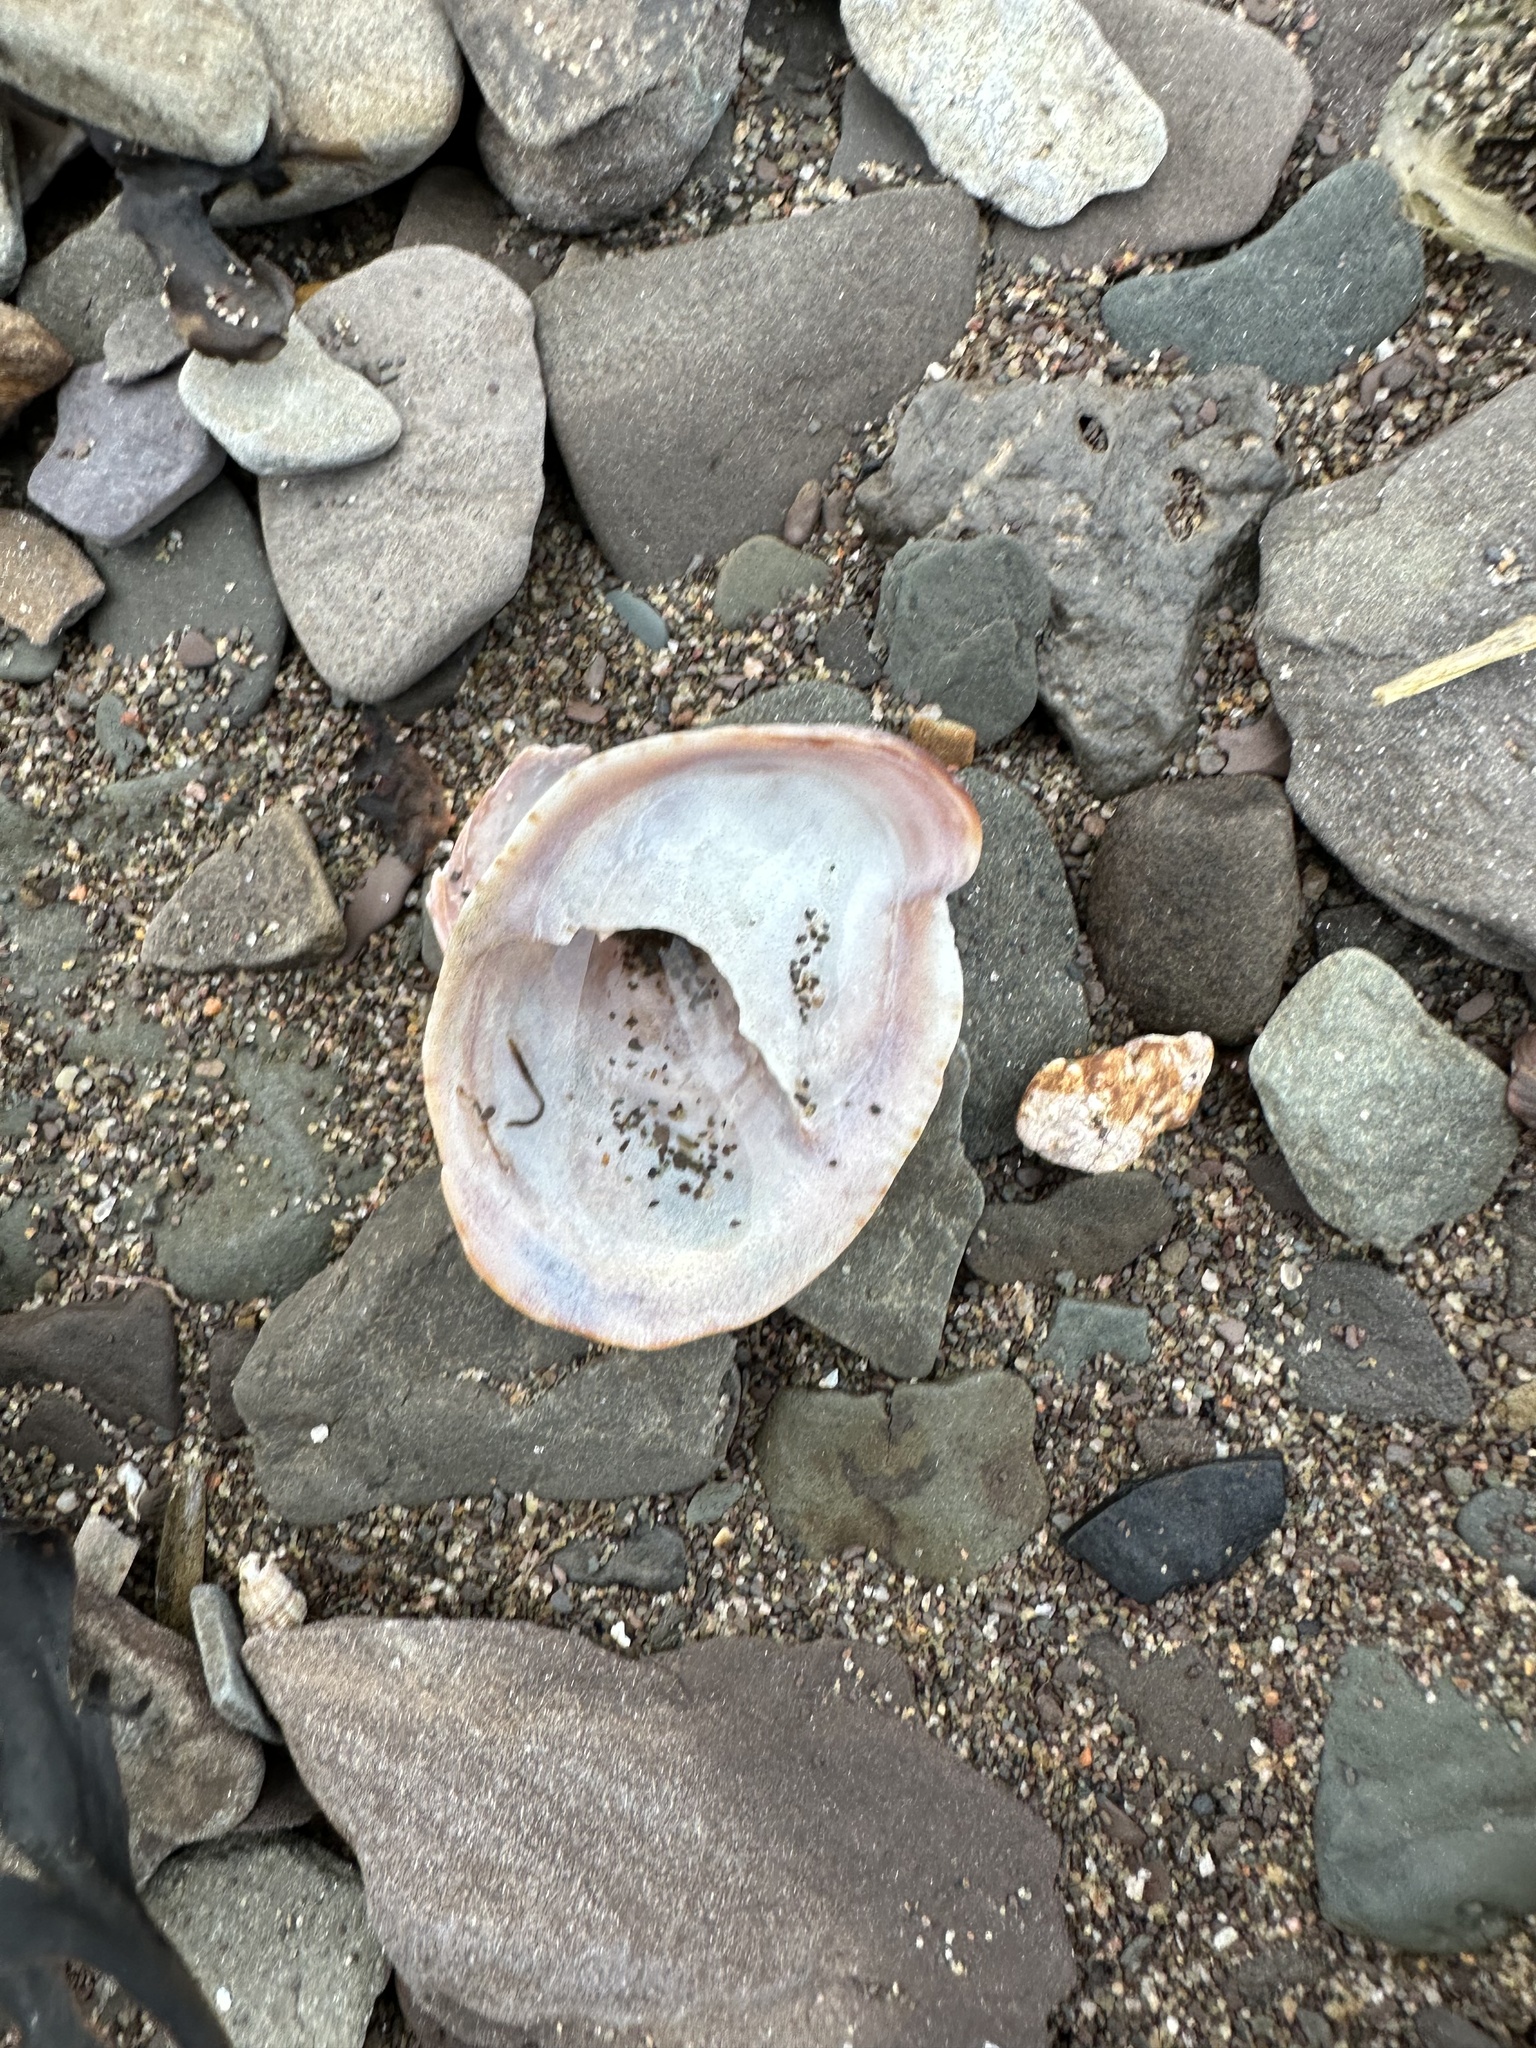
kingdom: Animalia
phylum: Mollusca
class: Gastropoda
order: Littorinimorpha
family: Calyptraeidae
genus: Crepidula
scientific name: Crepidula fornicata
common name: Slipper limpet
